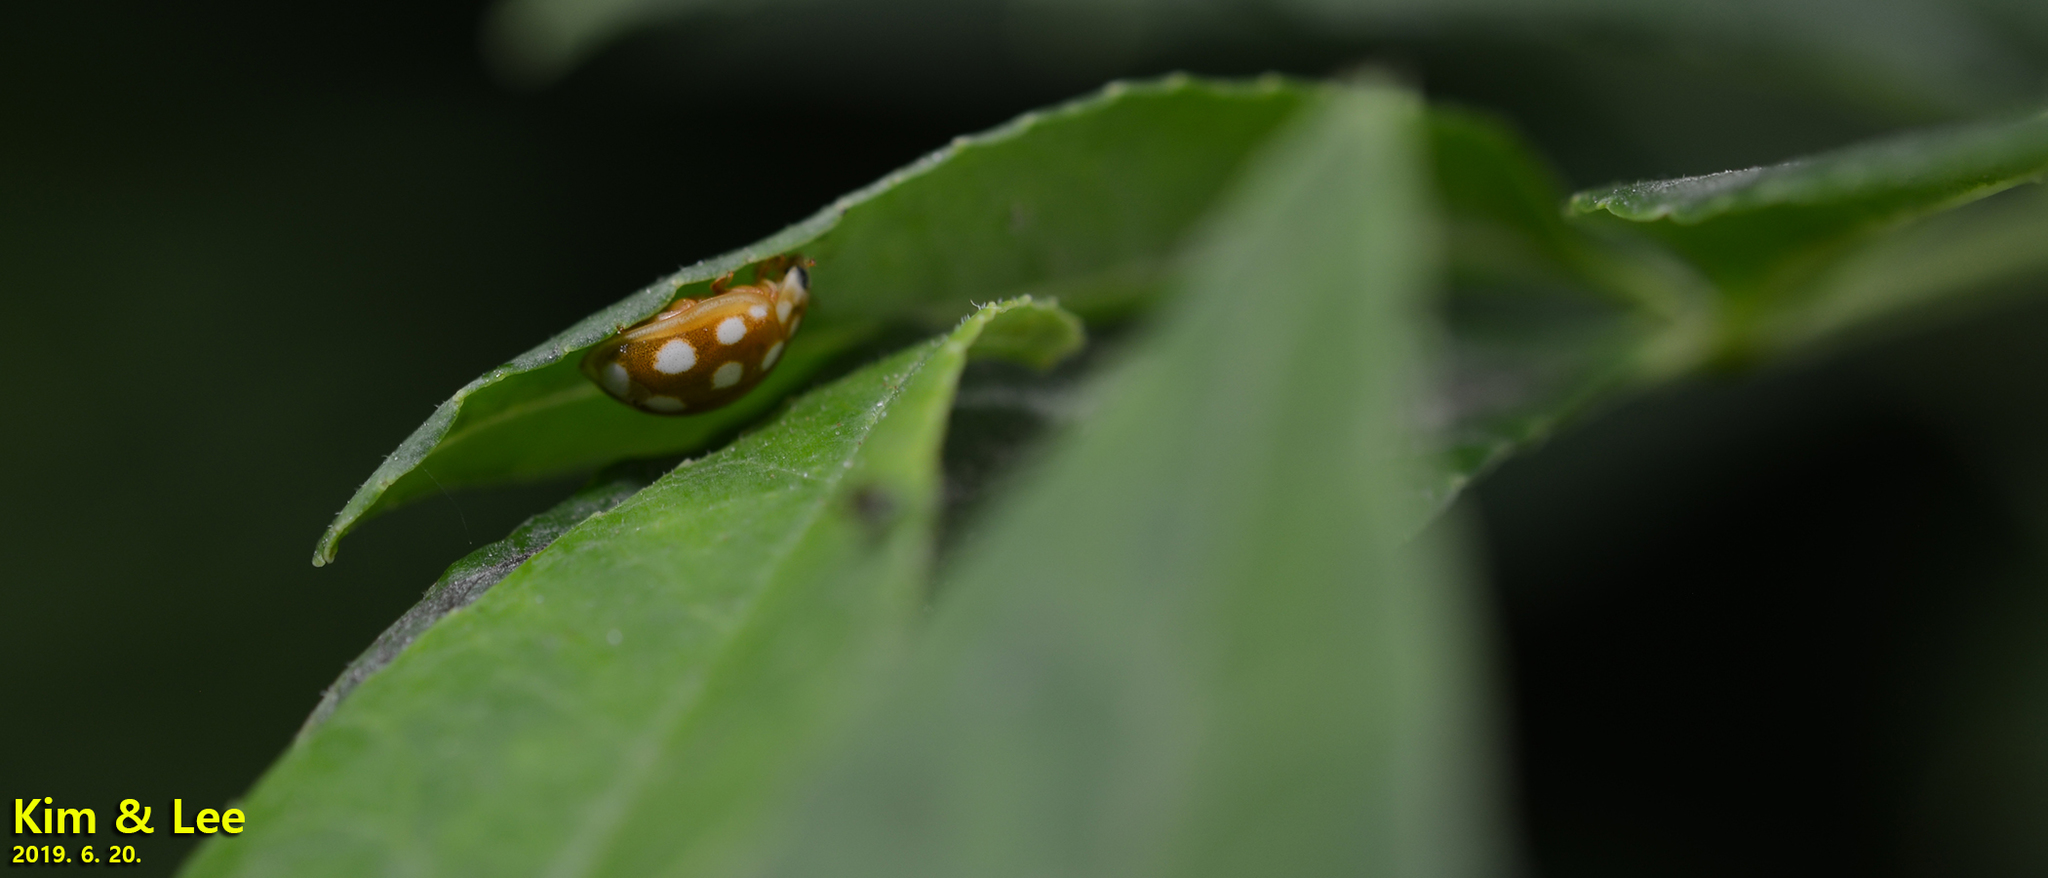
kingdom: Animalia
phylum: Arthropoda
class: Insecta
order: Coleoptera
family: Coccinellidae
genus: Calvia
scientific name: Calvia muiri
